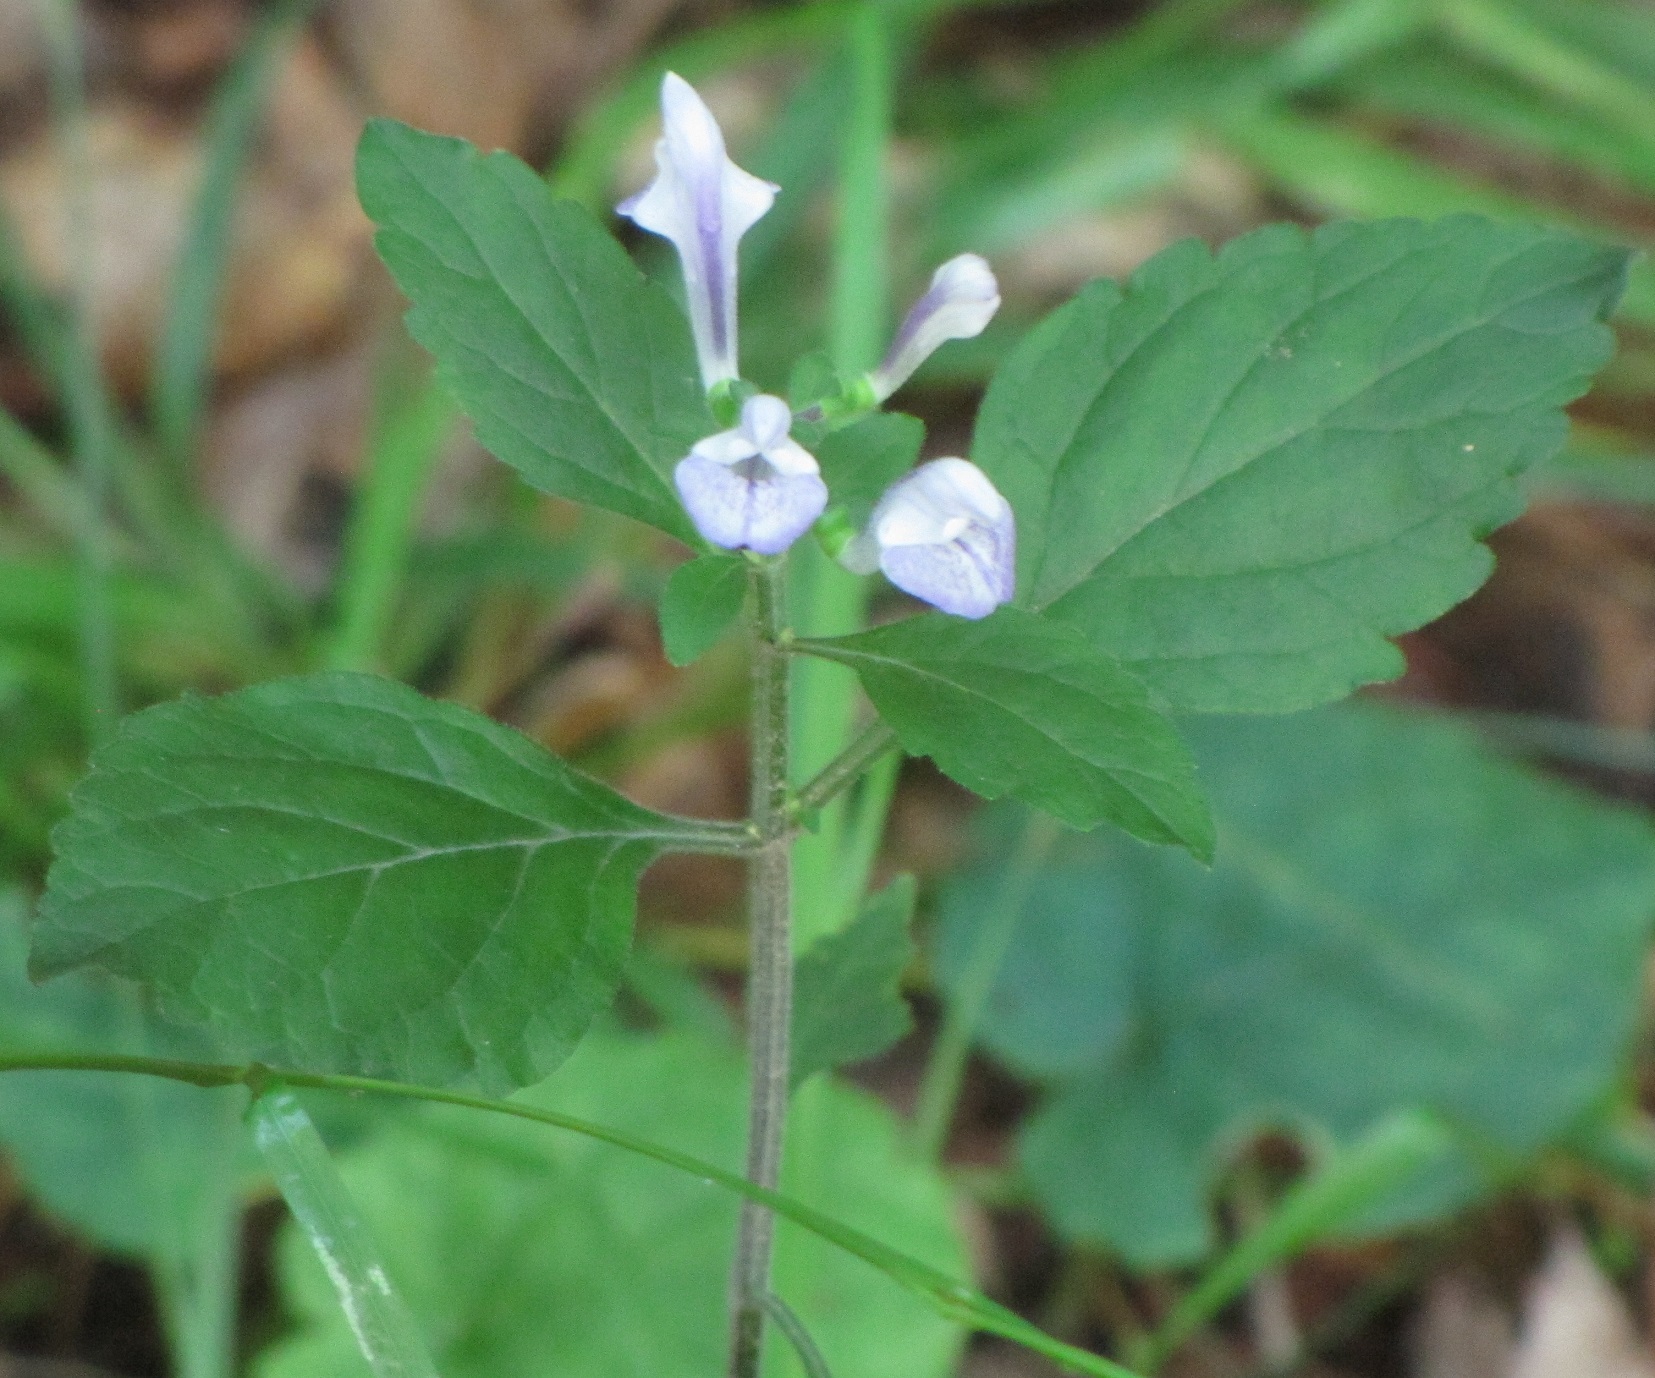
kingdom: Plantae
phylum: Tracheophyta
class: Magnoliopsida
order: Lamiales
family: Lamiaceae
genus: Scutellaria
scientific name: Scutellaria elliptica
